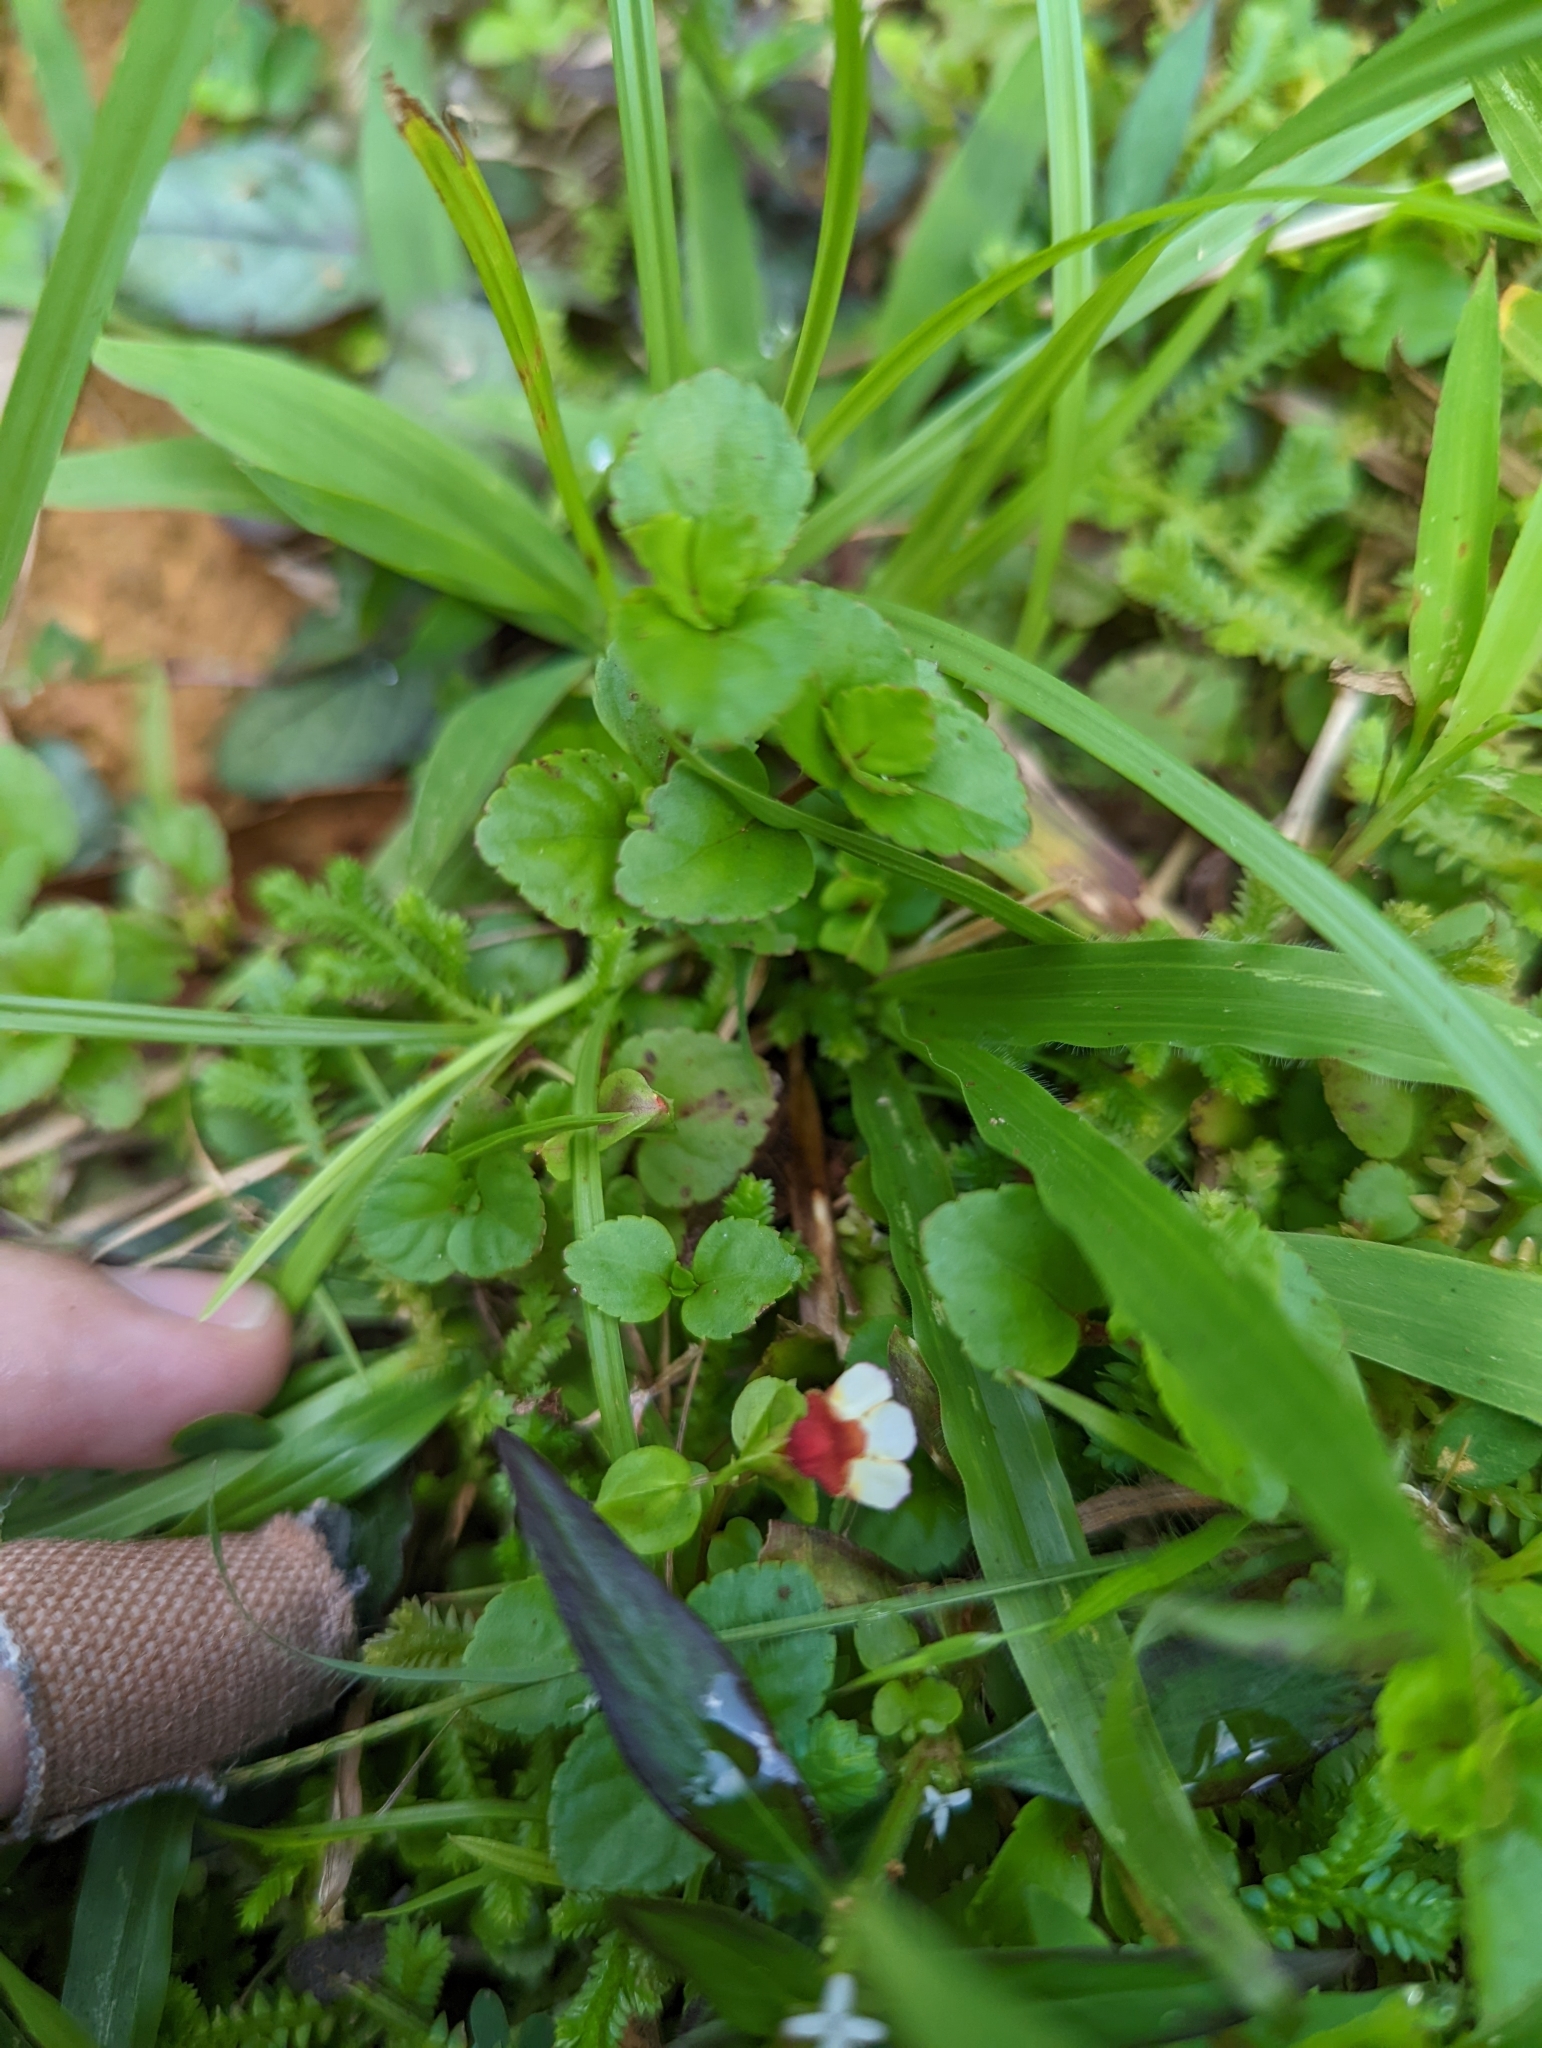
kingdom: Plantae
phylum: Tracheophyta
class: Magnoliopsida
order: Lamiales
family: Linderniaceae
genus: Legazpia
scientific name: Legazpia polygonoides
